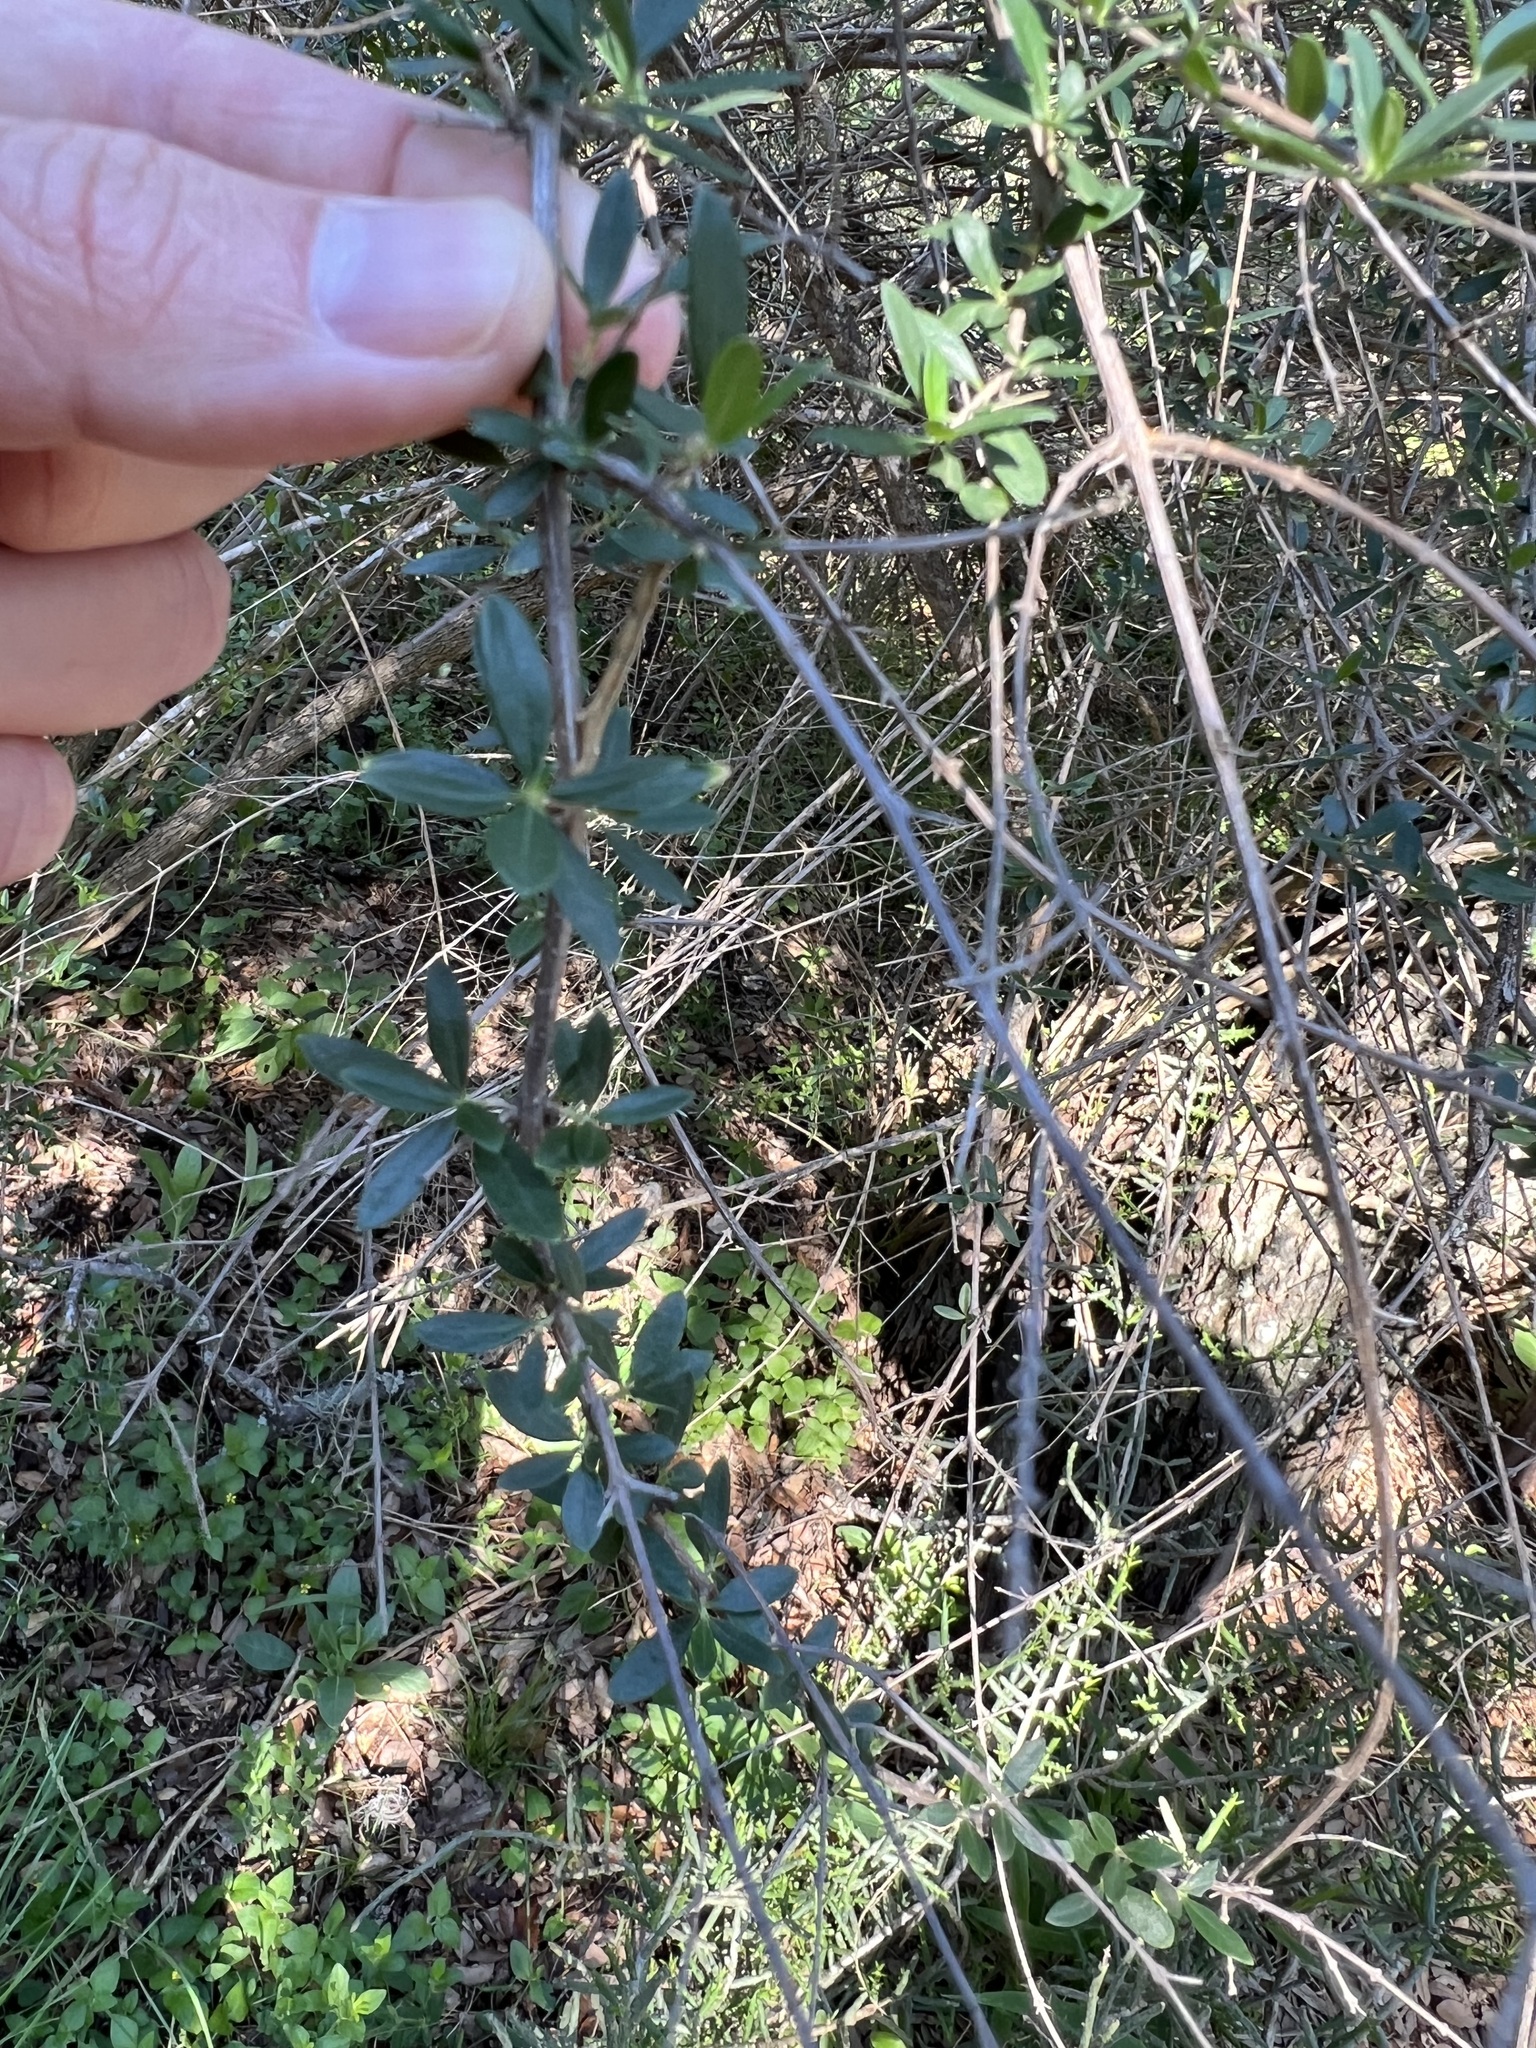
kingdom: Plantae
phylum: Tracheophyta
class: Magnoliopsida
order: Lamiales
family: Verbenaceae
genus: Aloysia
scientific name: Aloysia gratissima
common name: Common bee-brush
